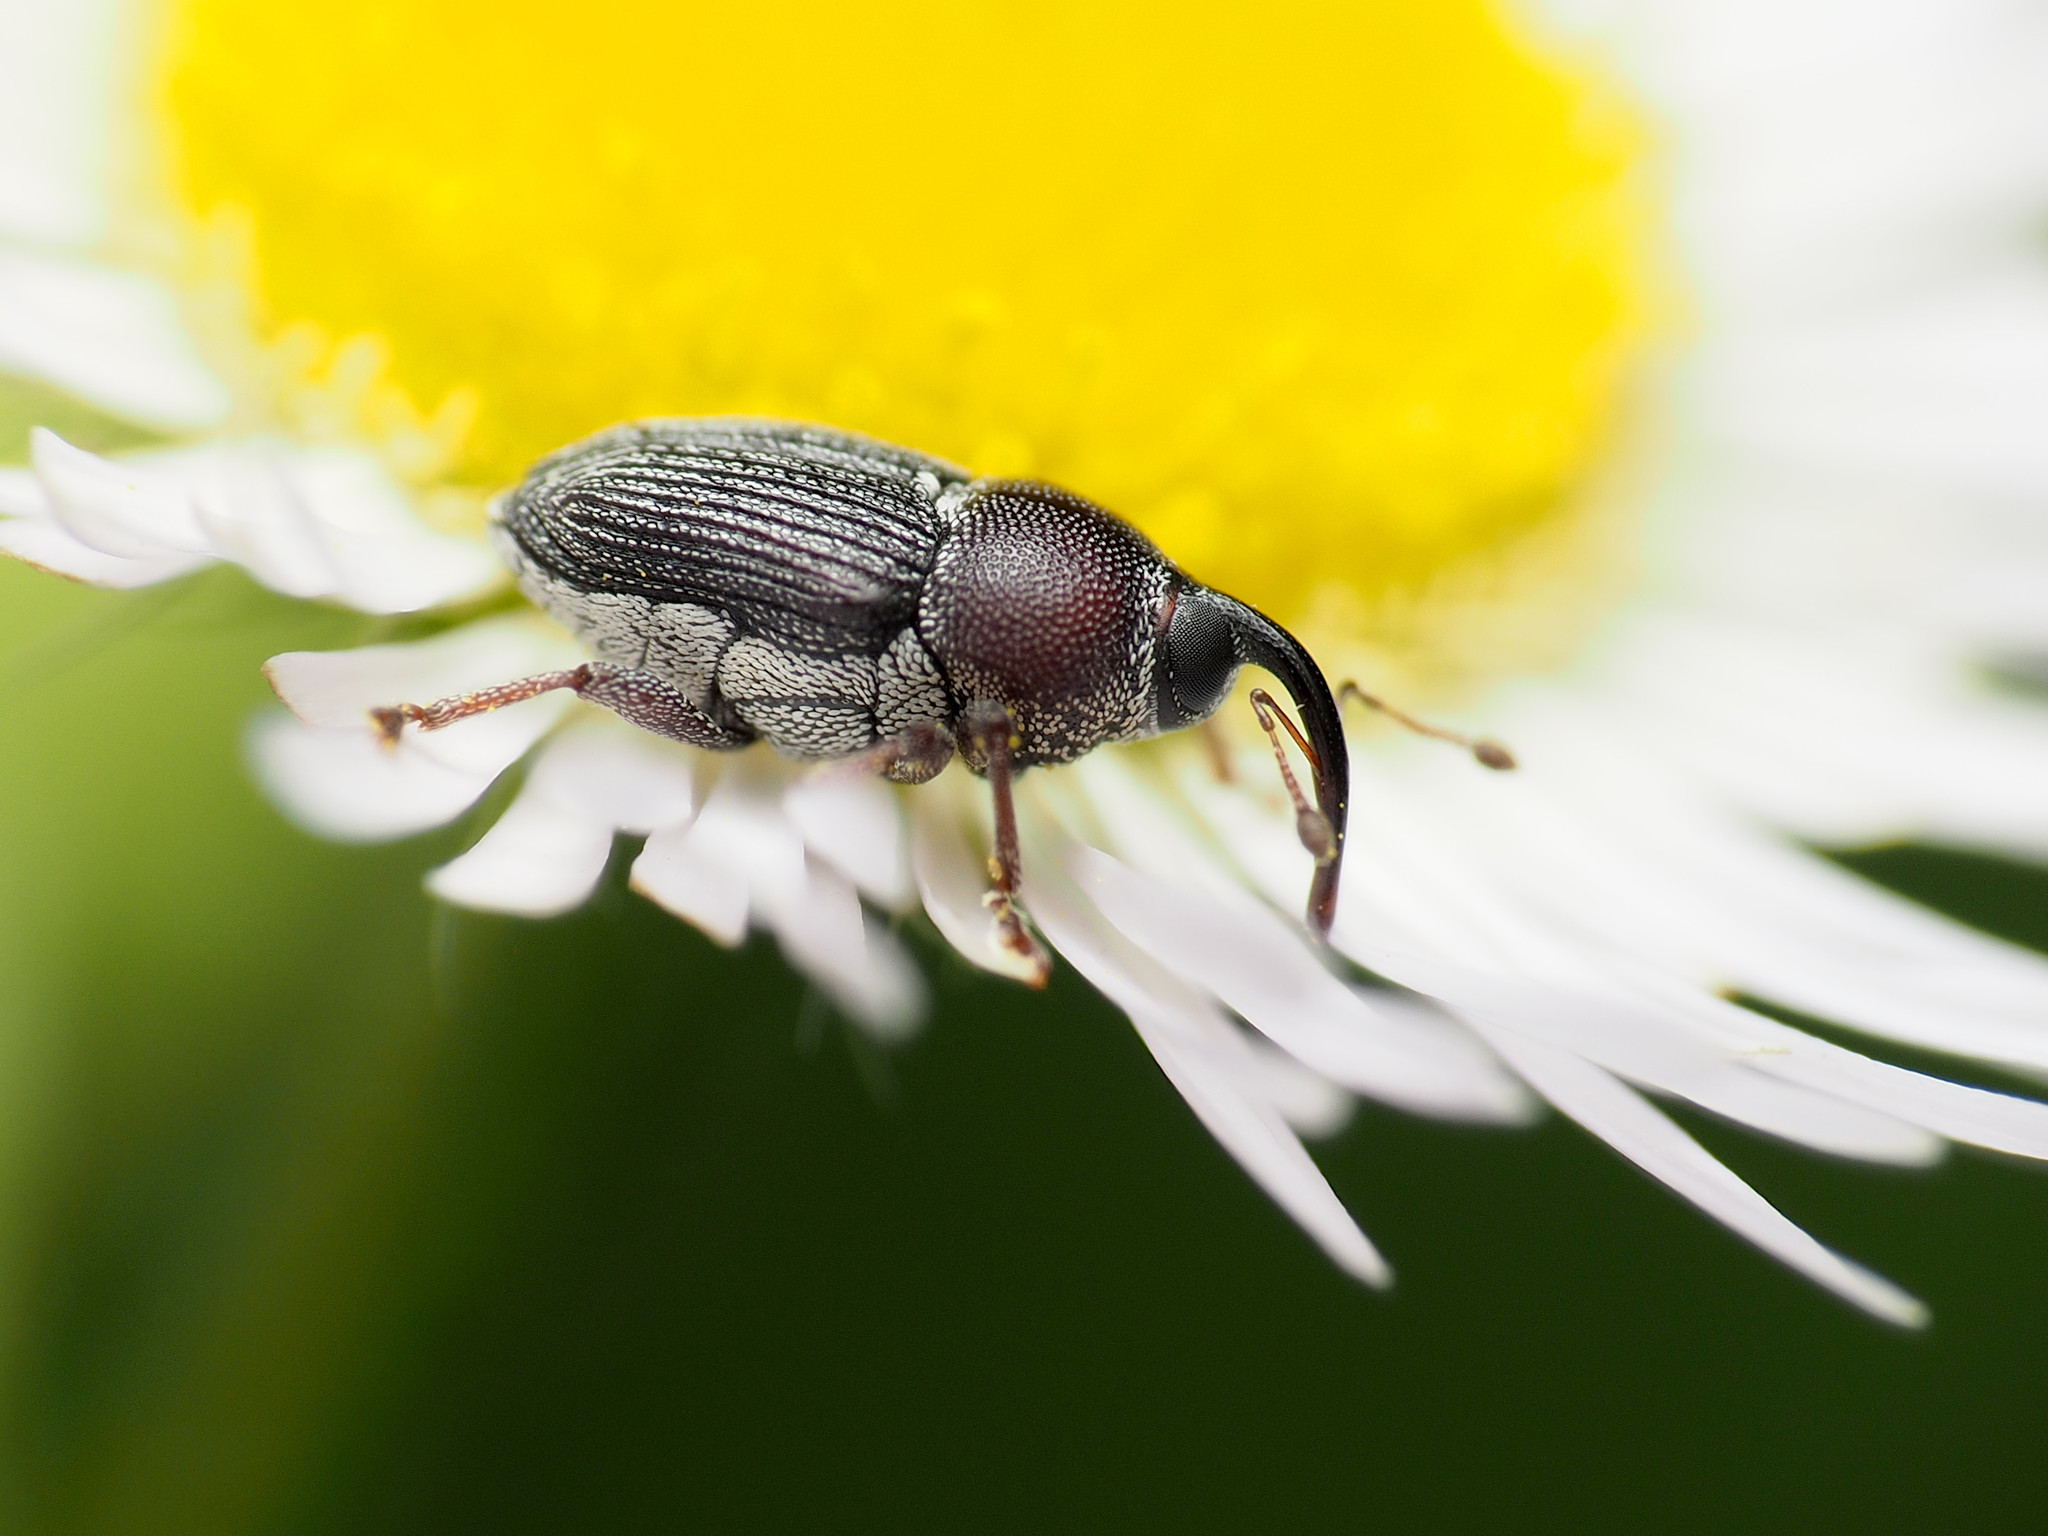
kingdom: Animalia
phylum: Arthropoda
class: Insecta
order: Coleoptera
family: Curculionidae
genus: Odontocorynus
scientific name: Odontocorynus salebrosus
